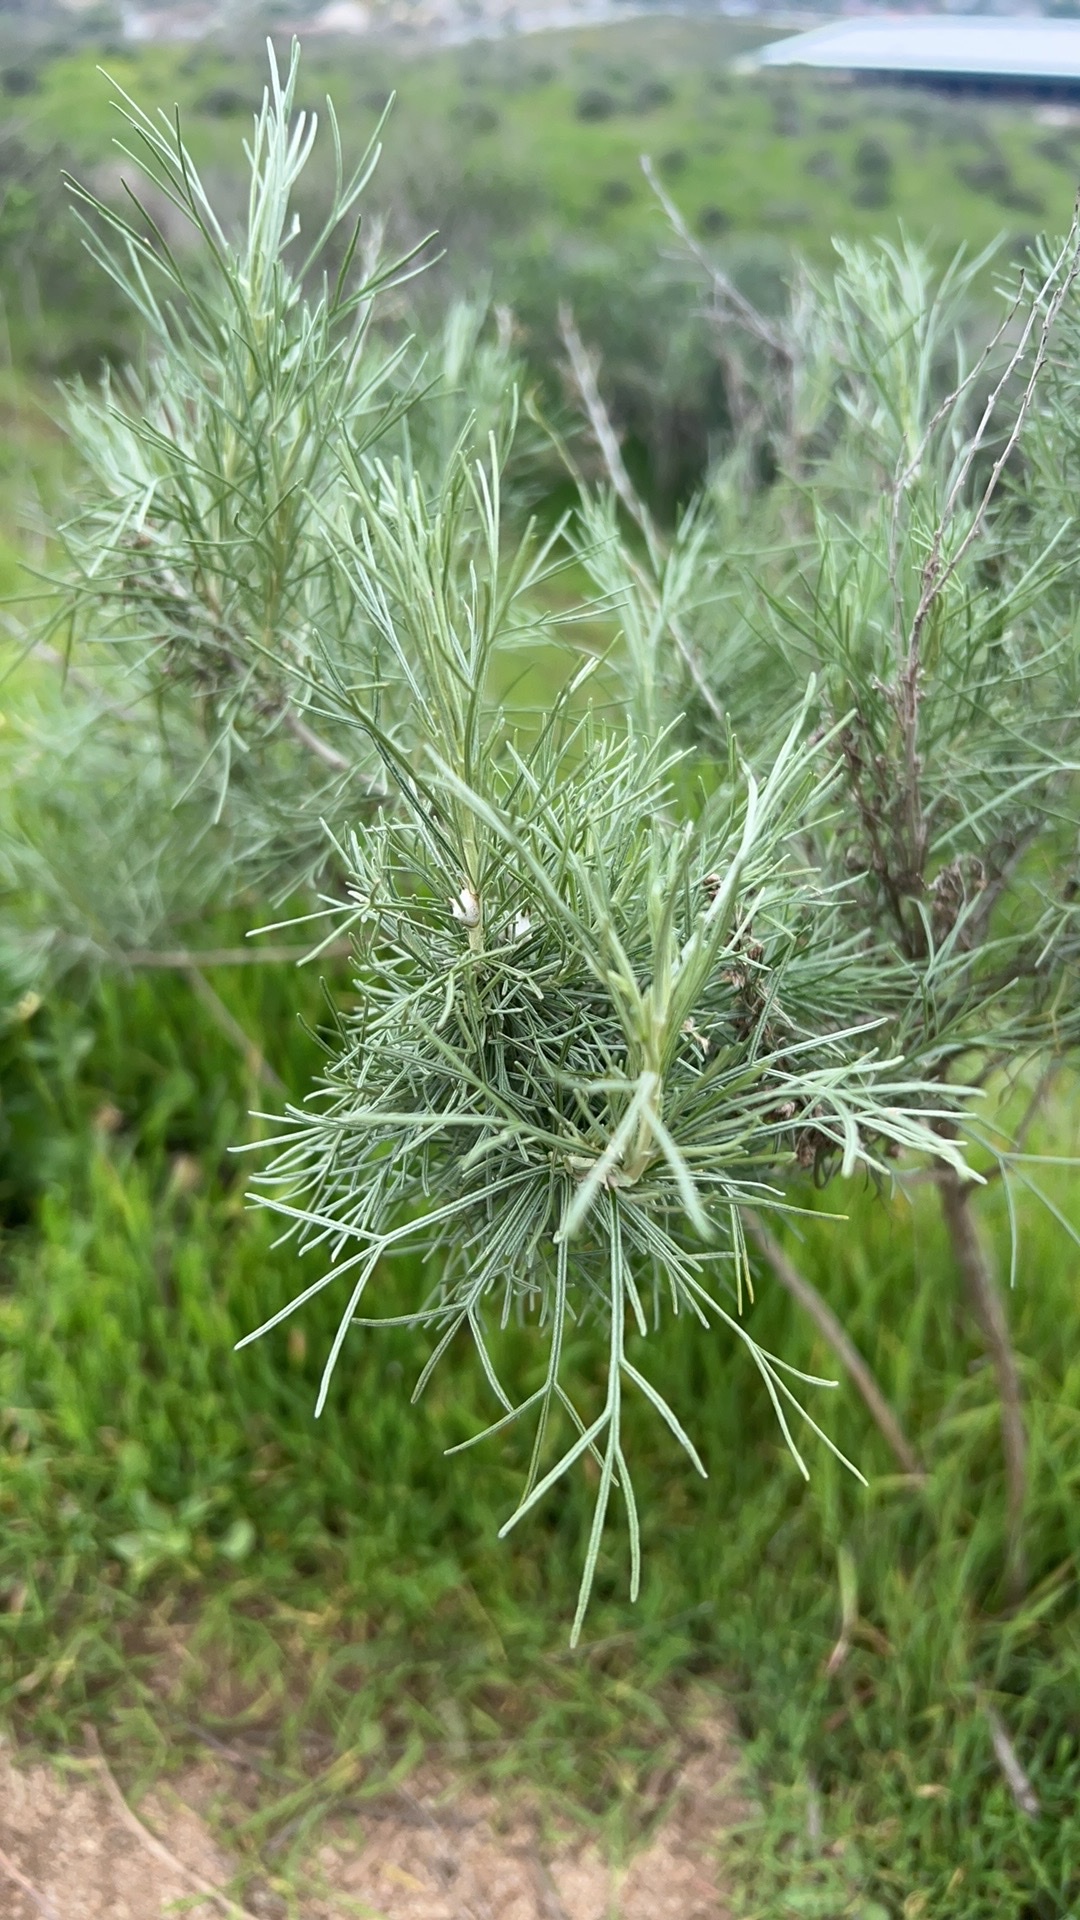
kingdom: Plantae
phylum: Tracheophyta
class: Magnoliopsida
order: Asterales
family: Asteraceae
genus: Artemisia
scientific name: Artemisia californica
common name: California sagebrush
